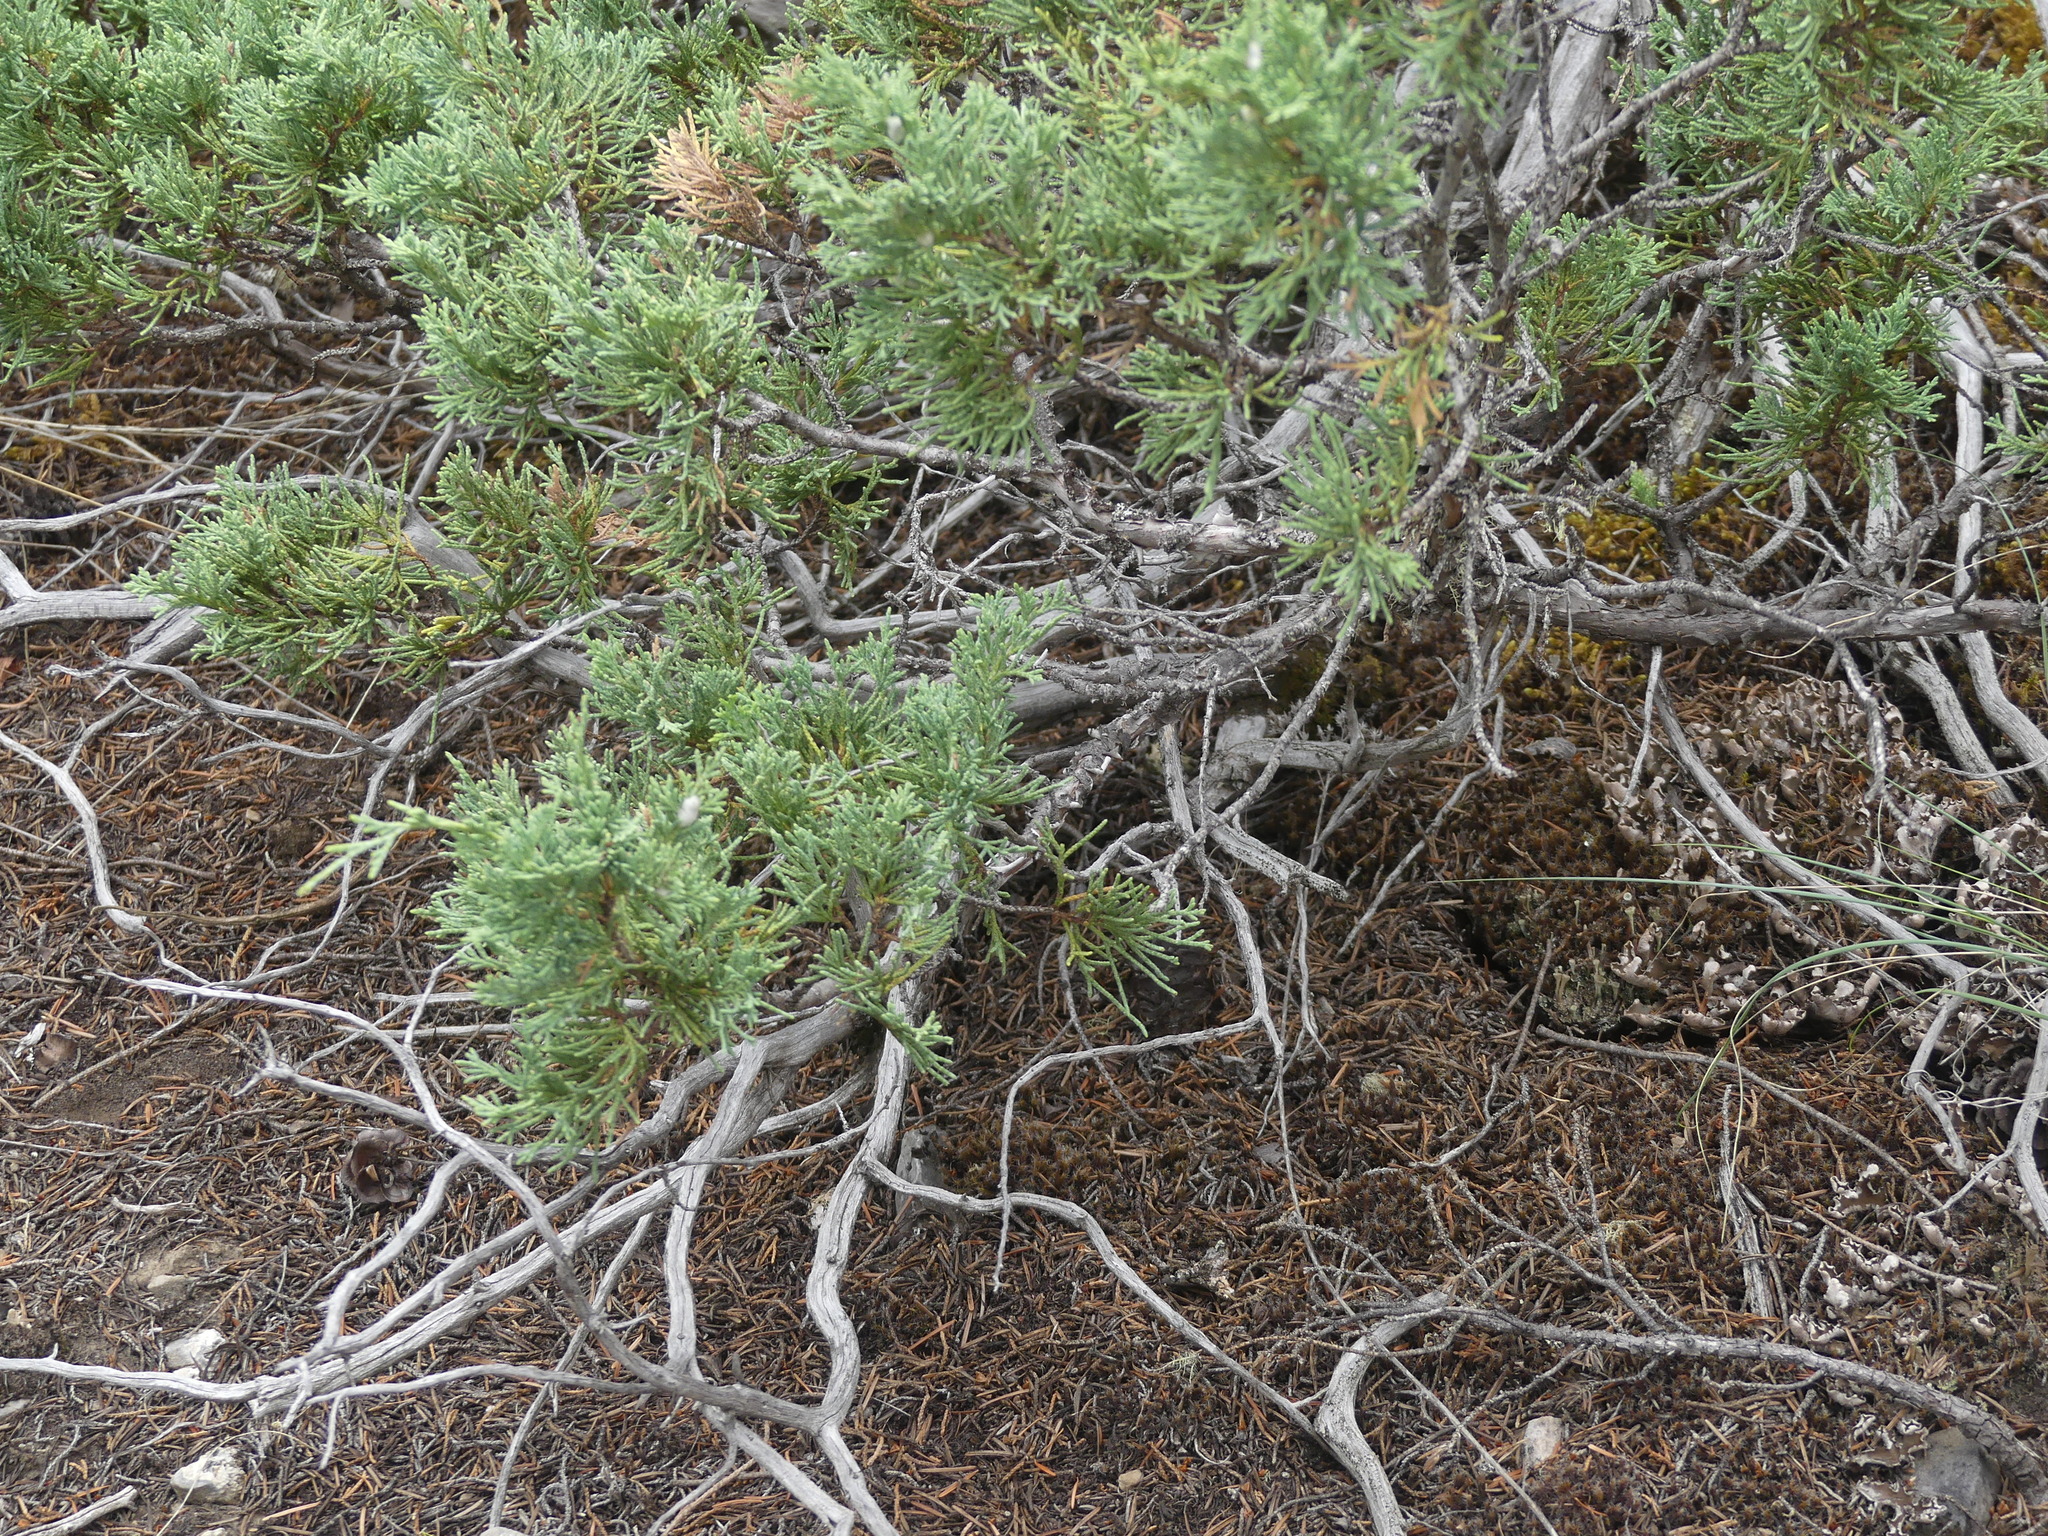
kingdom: Plantae
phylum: Tracheophyta
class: Pinopsida
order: Pinales
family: Cupressaceae
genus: Juniperus
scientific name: Juniperus scopulorum
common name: Rocky mountain juniper
